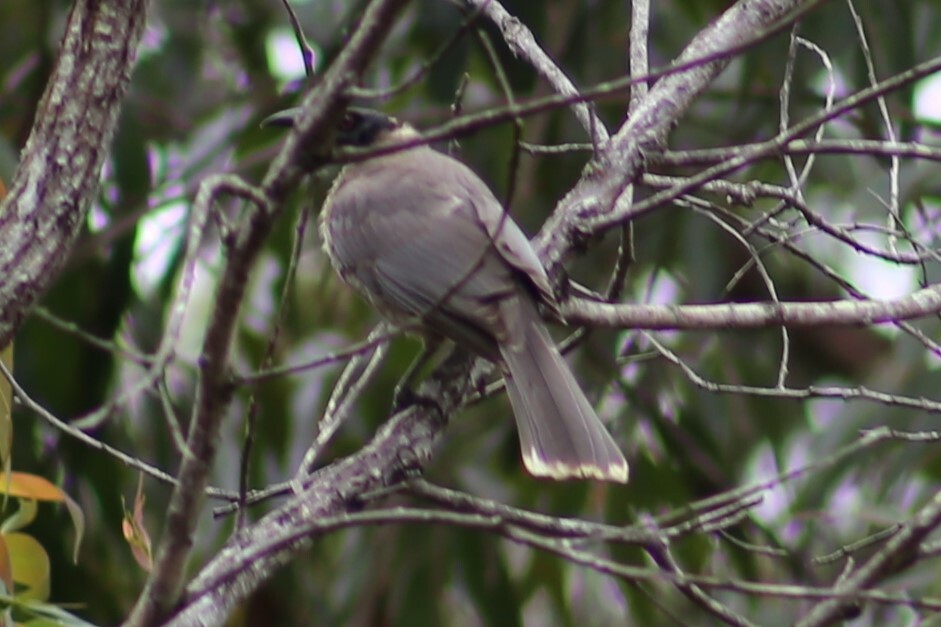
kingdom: Animalia
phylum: Chordata
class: Aves
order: Passeriformes
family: Meliphagidae
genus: Philemon
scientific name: Philemon corniculatus
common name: Noisy friarbird
